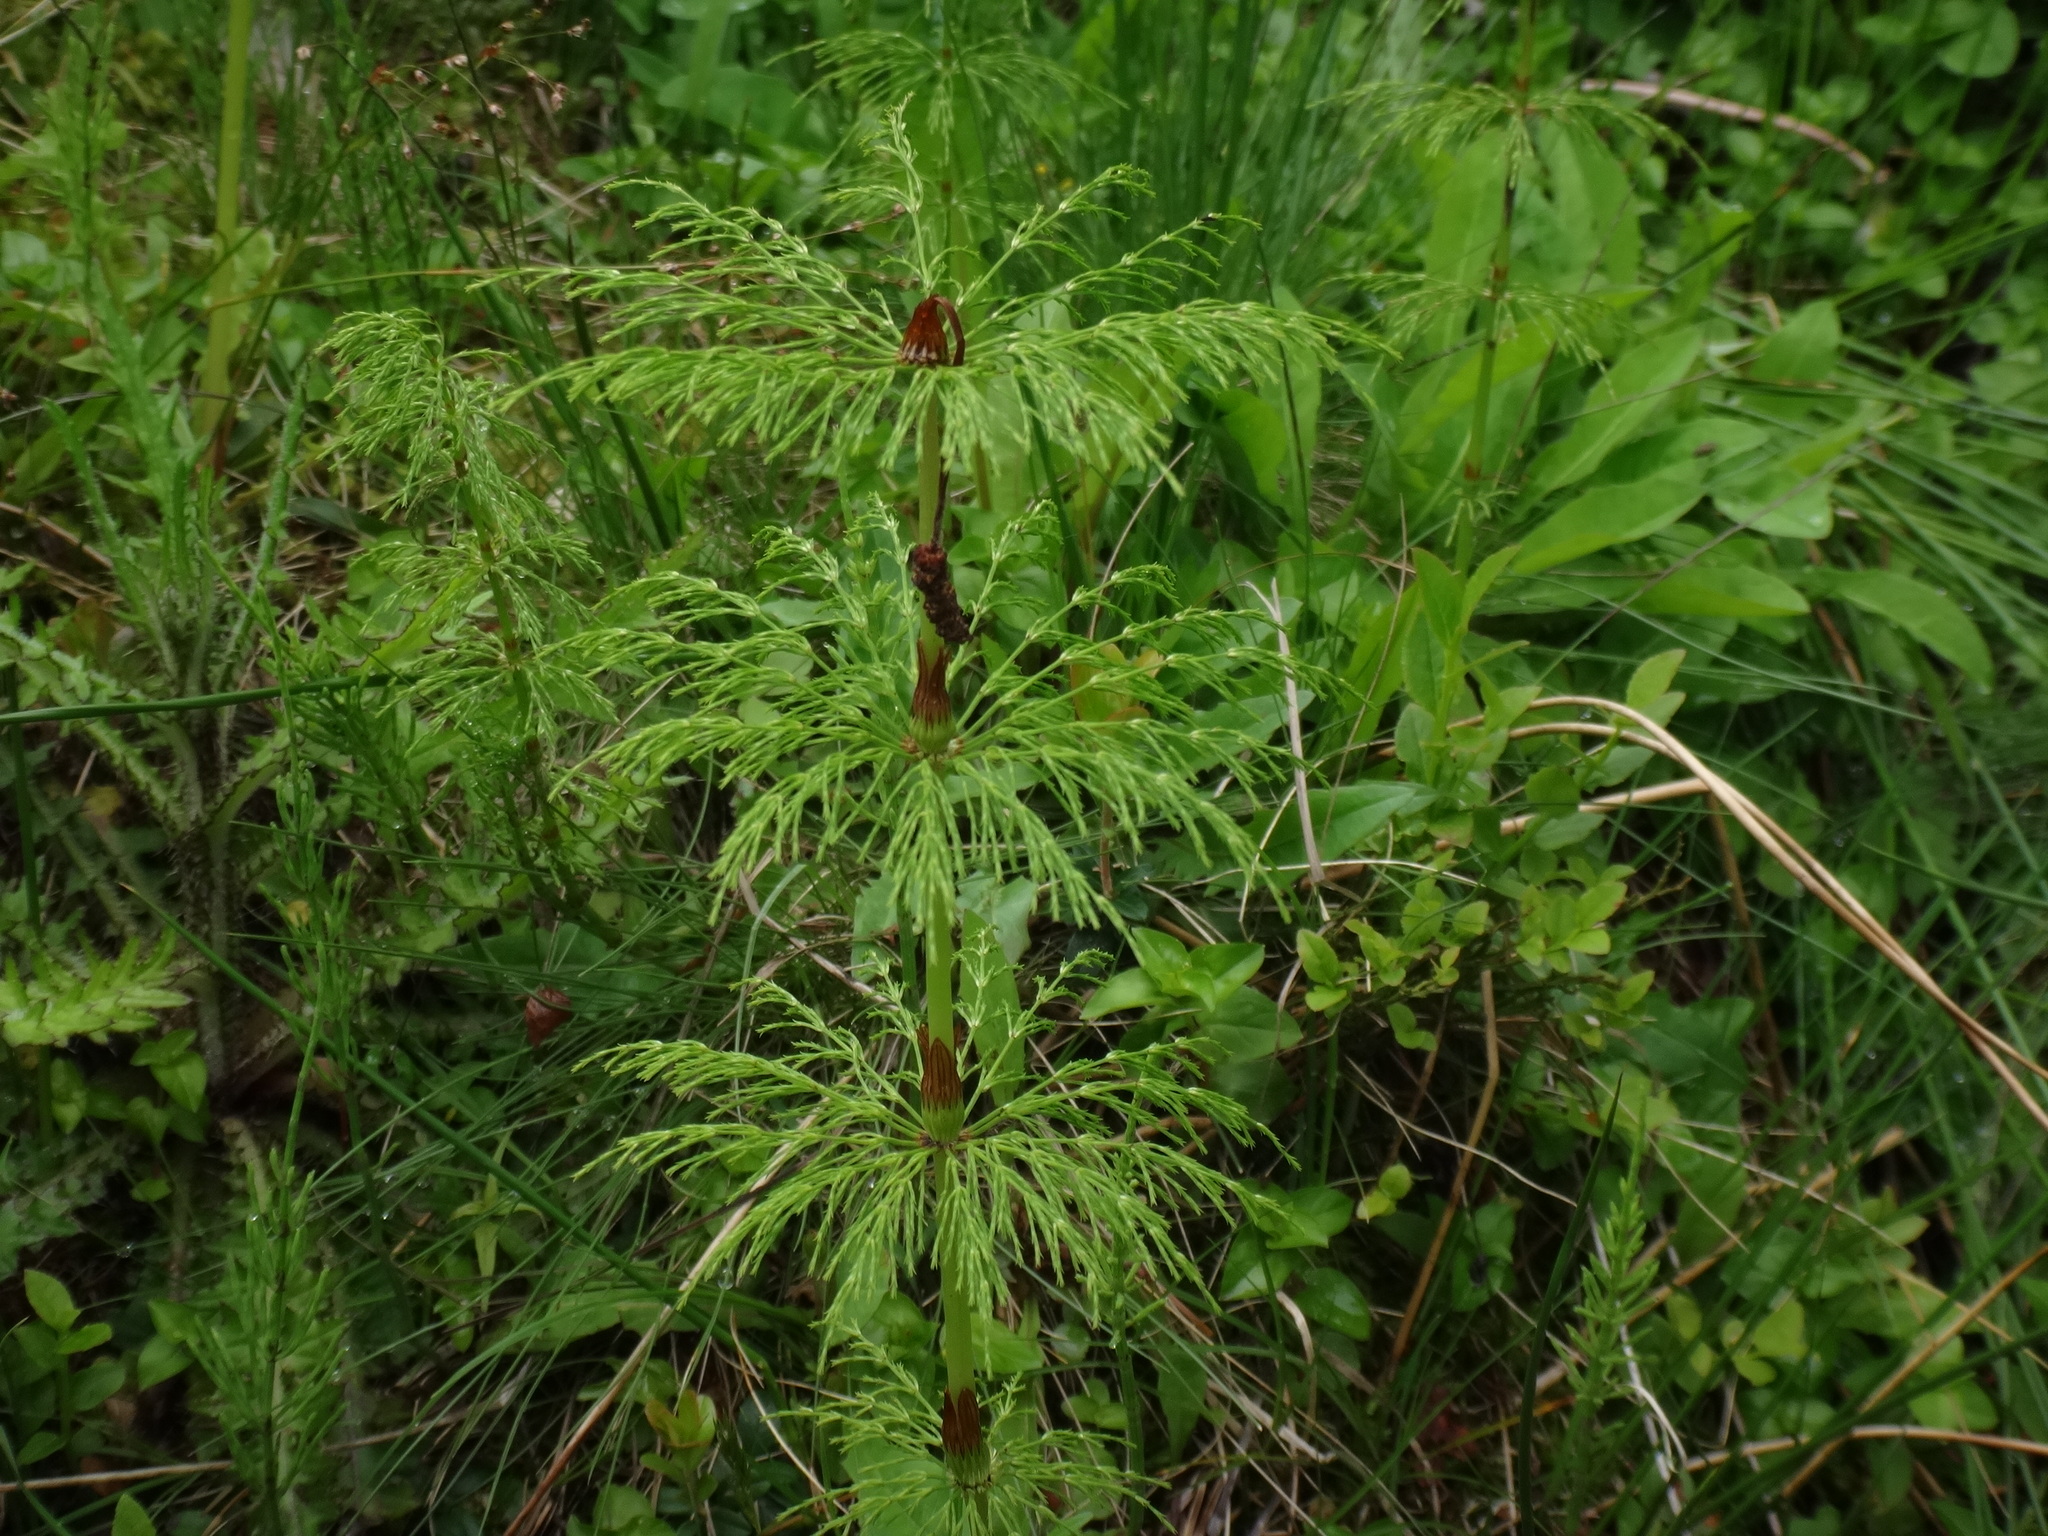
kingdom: Plantae
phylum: Tracheophyta
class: Polypodiopsida
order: Equisetales
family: Equisetaceae
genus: Equisetum
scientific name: Equisetum sylvaticum
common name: Wood horsetail
